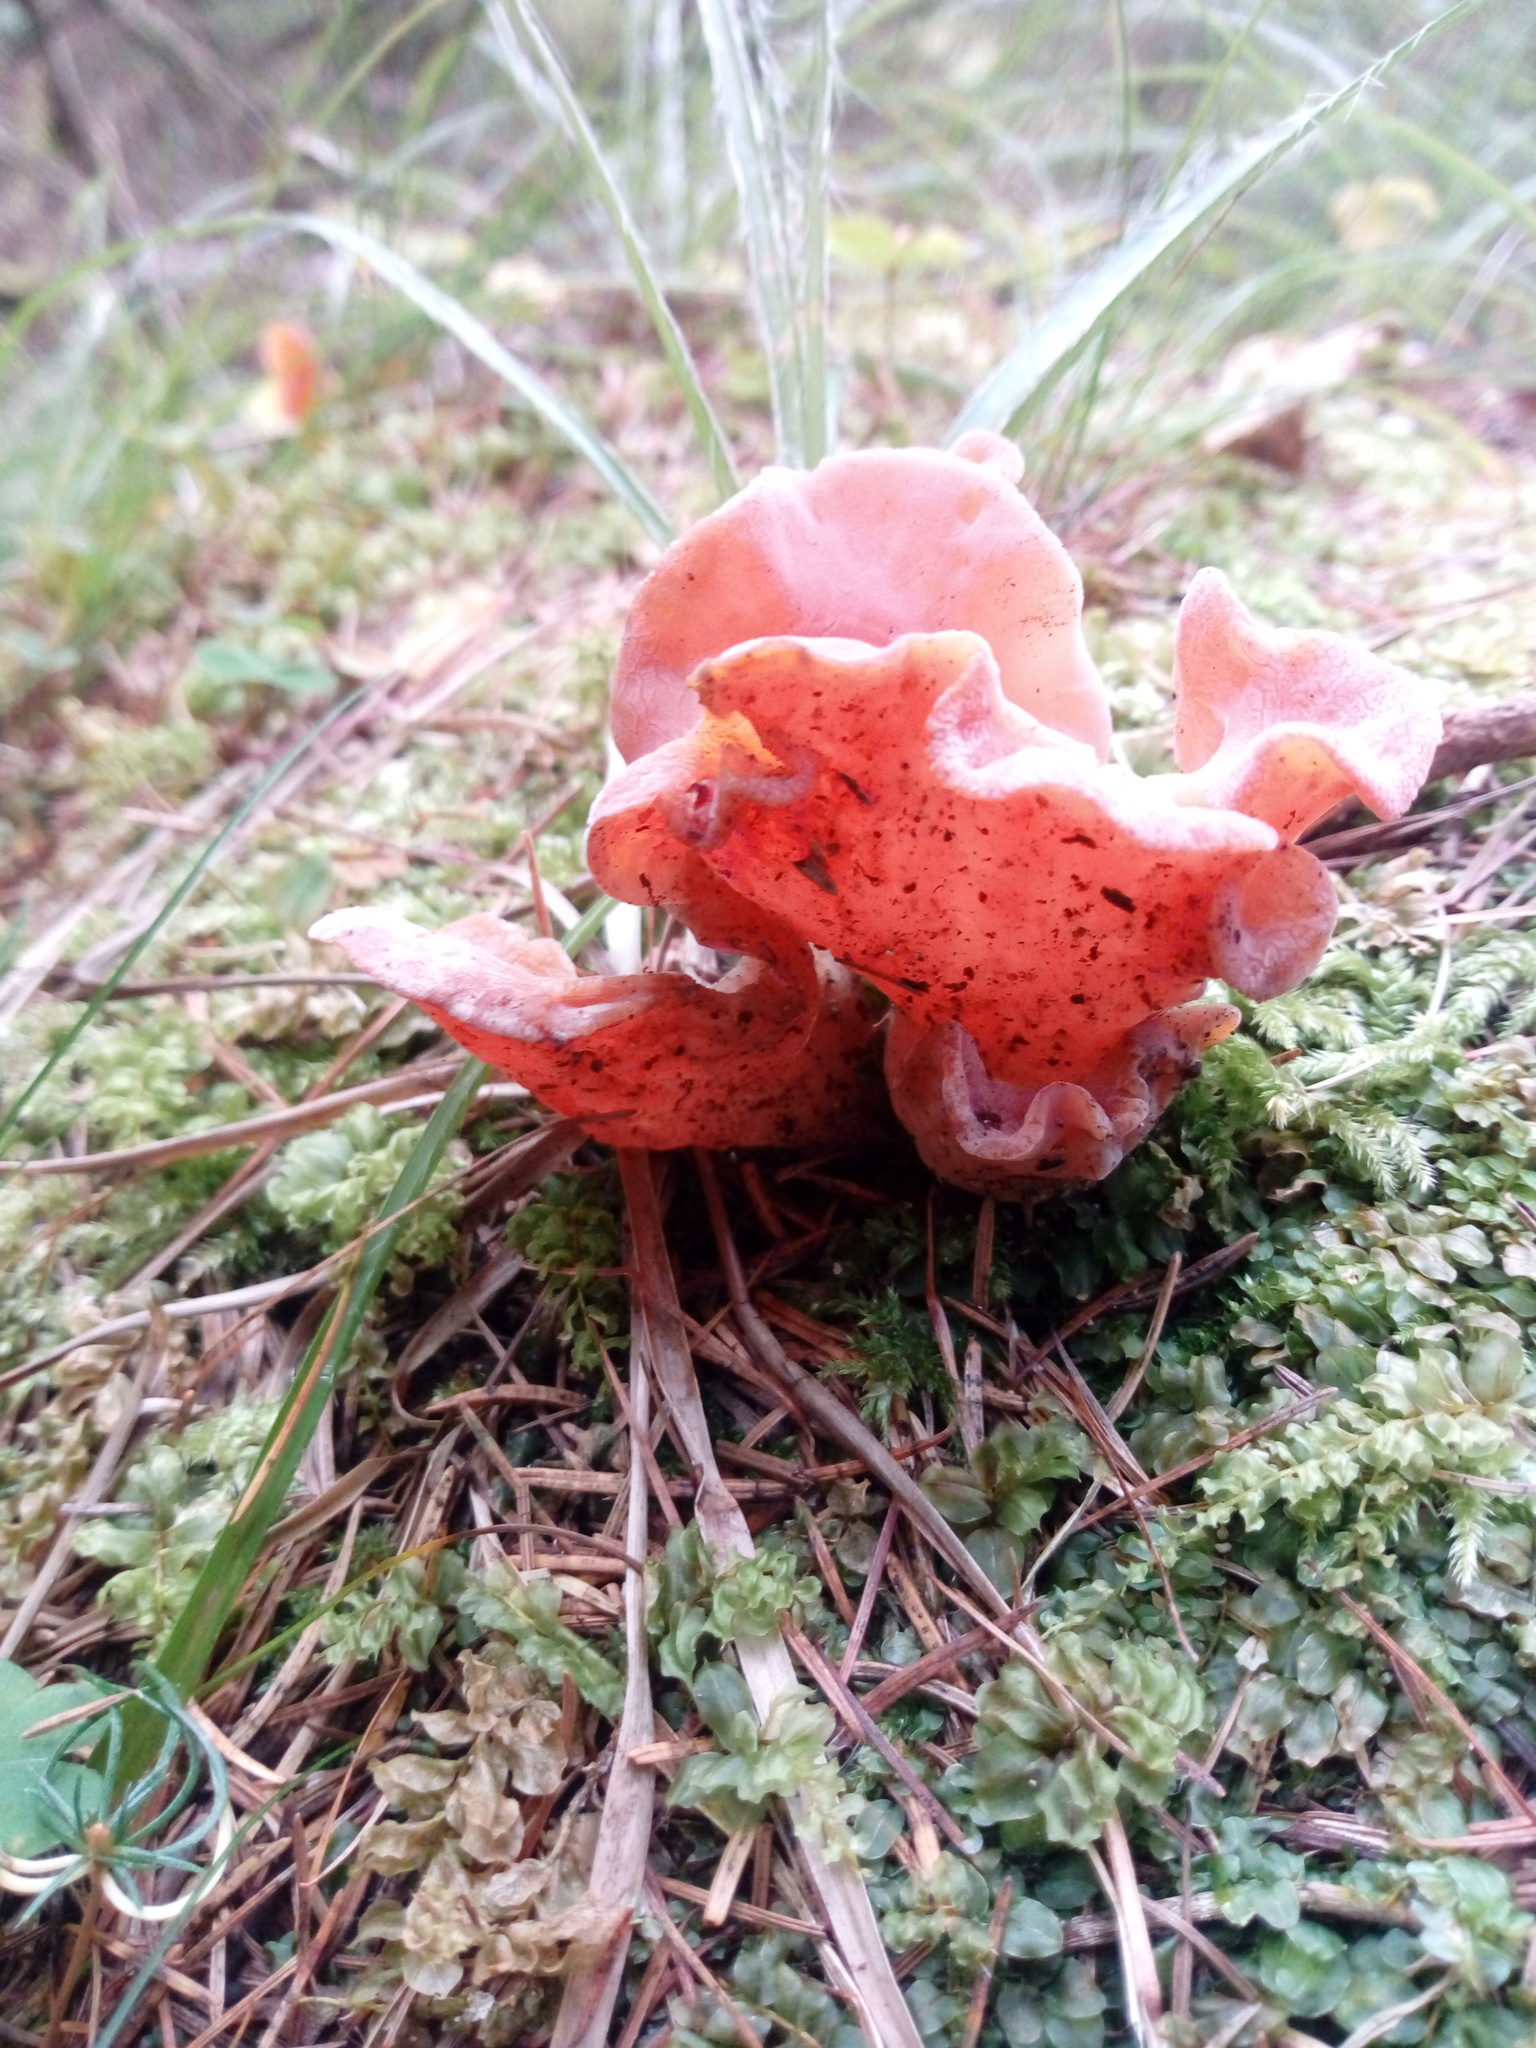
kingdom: Fungi
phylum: Basidiomycota
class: Agaricomycetes
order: Auriculariales
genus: Guepinia
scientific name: Guepinia helvelloides
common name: Salmon salad
